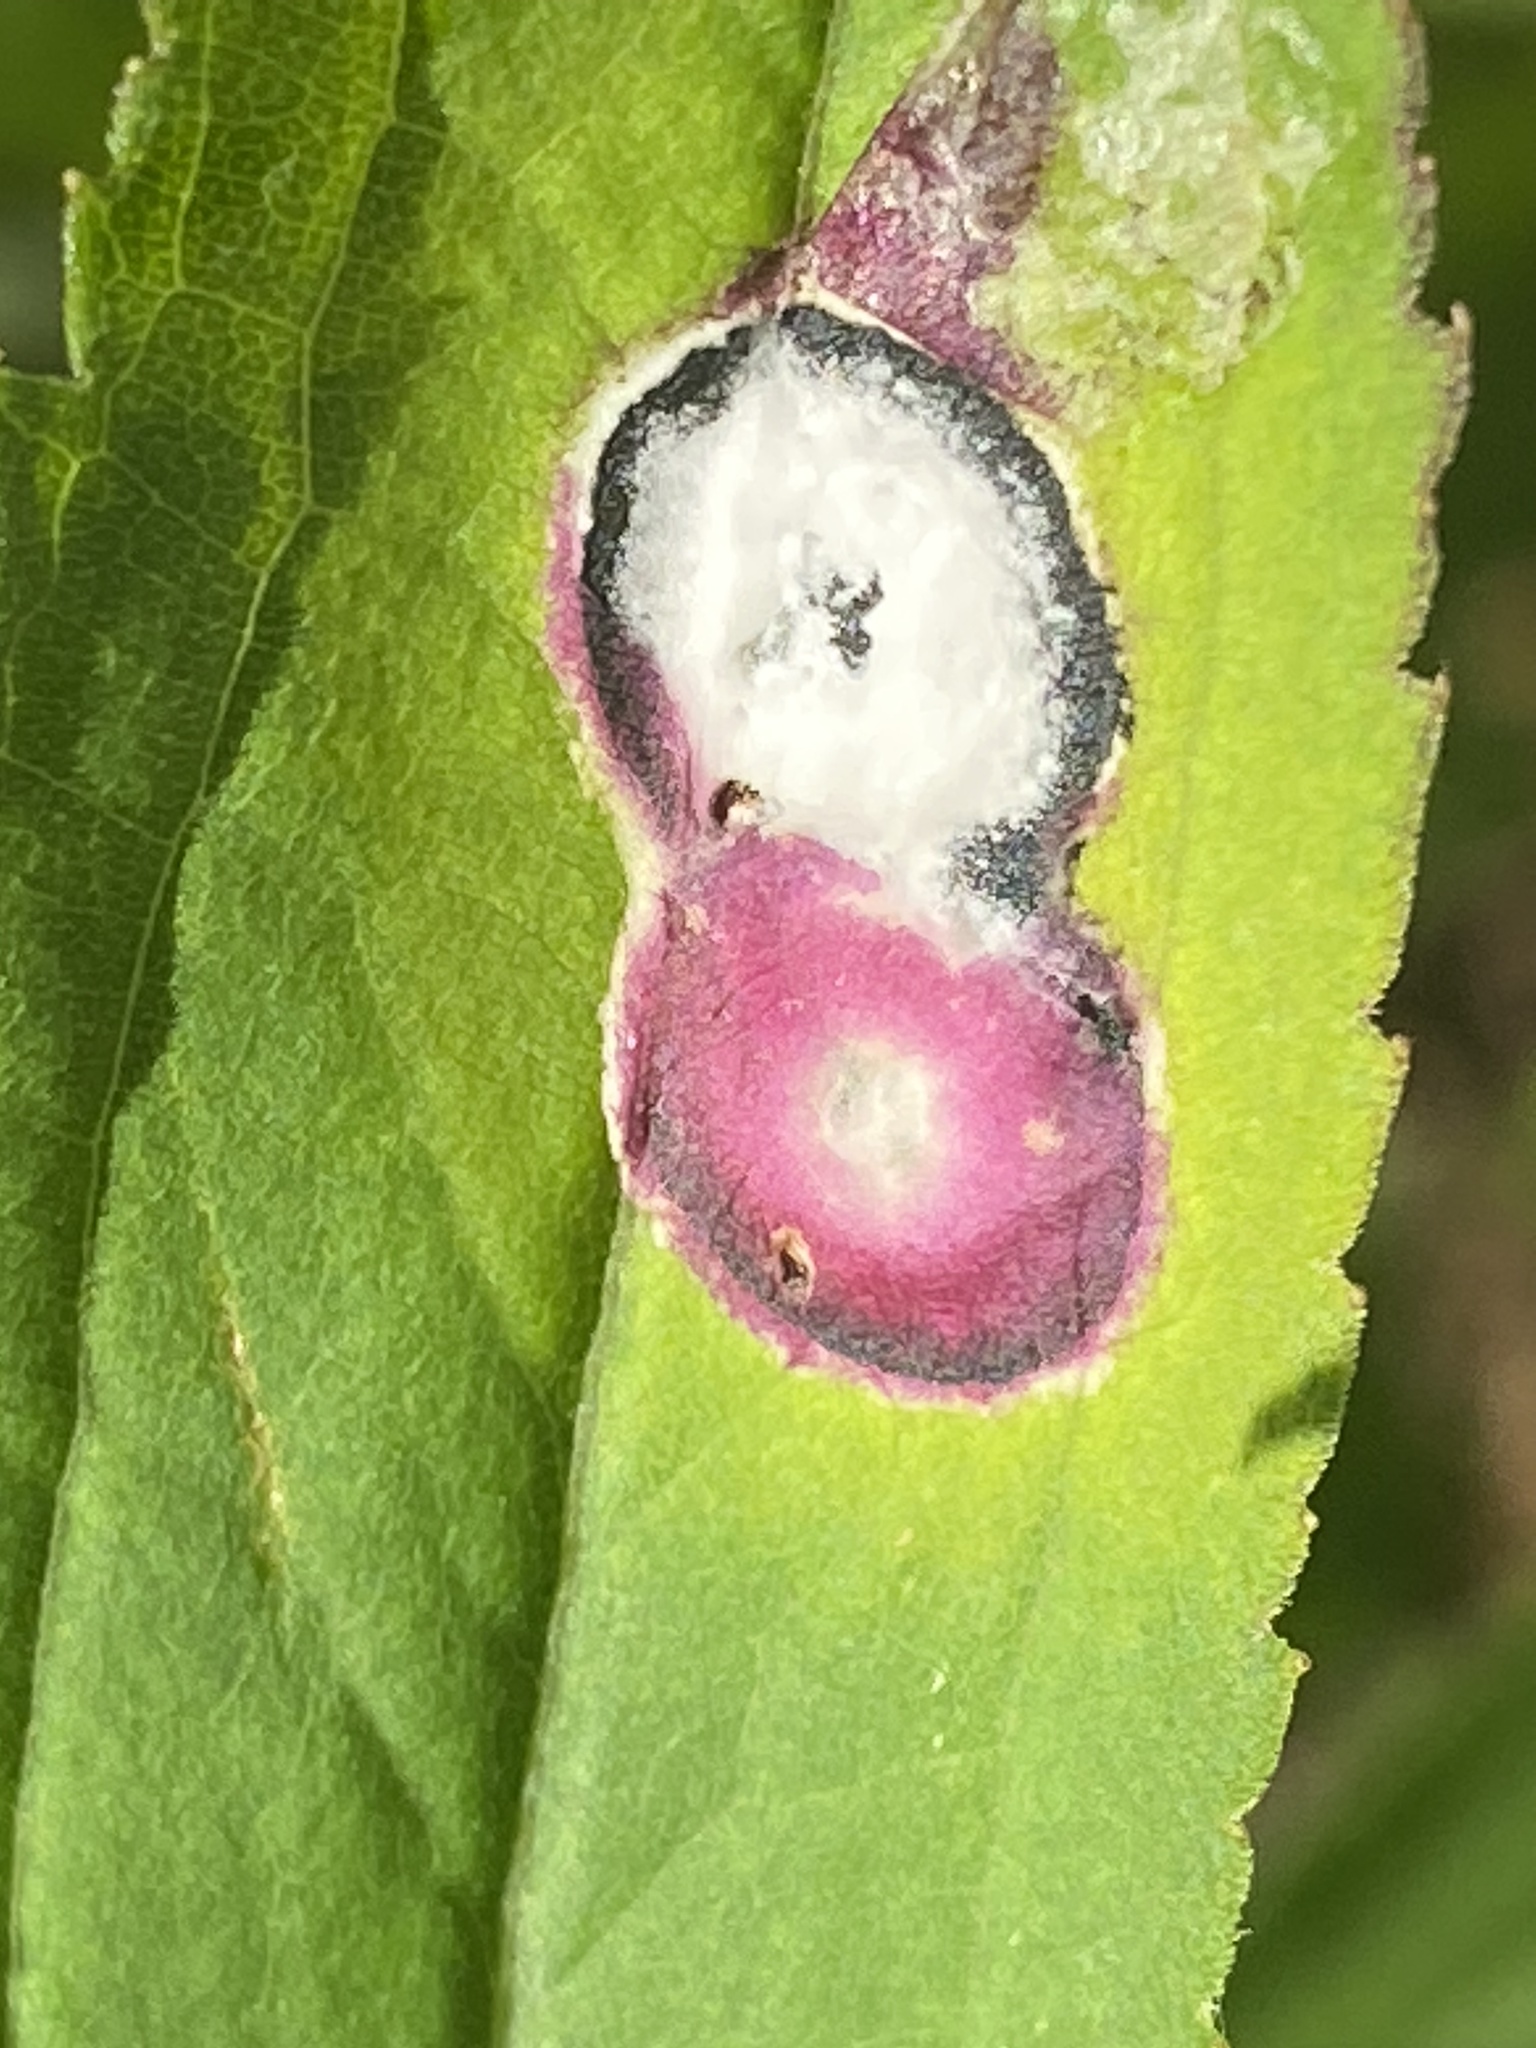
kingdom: Animalia
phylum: Arthropoda
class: Insecta
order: Diptera
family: Cecidomyiidae
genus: Asteromyia
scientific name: Asteromyia carbonifera
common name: Carbonifera goldenrod gall midge
